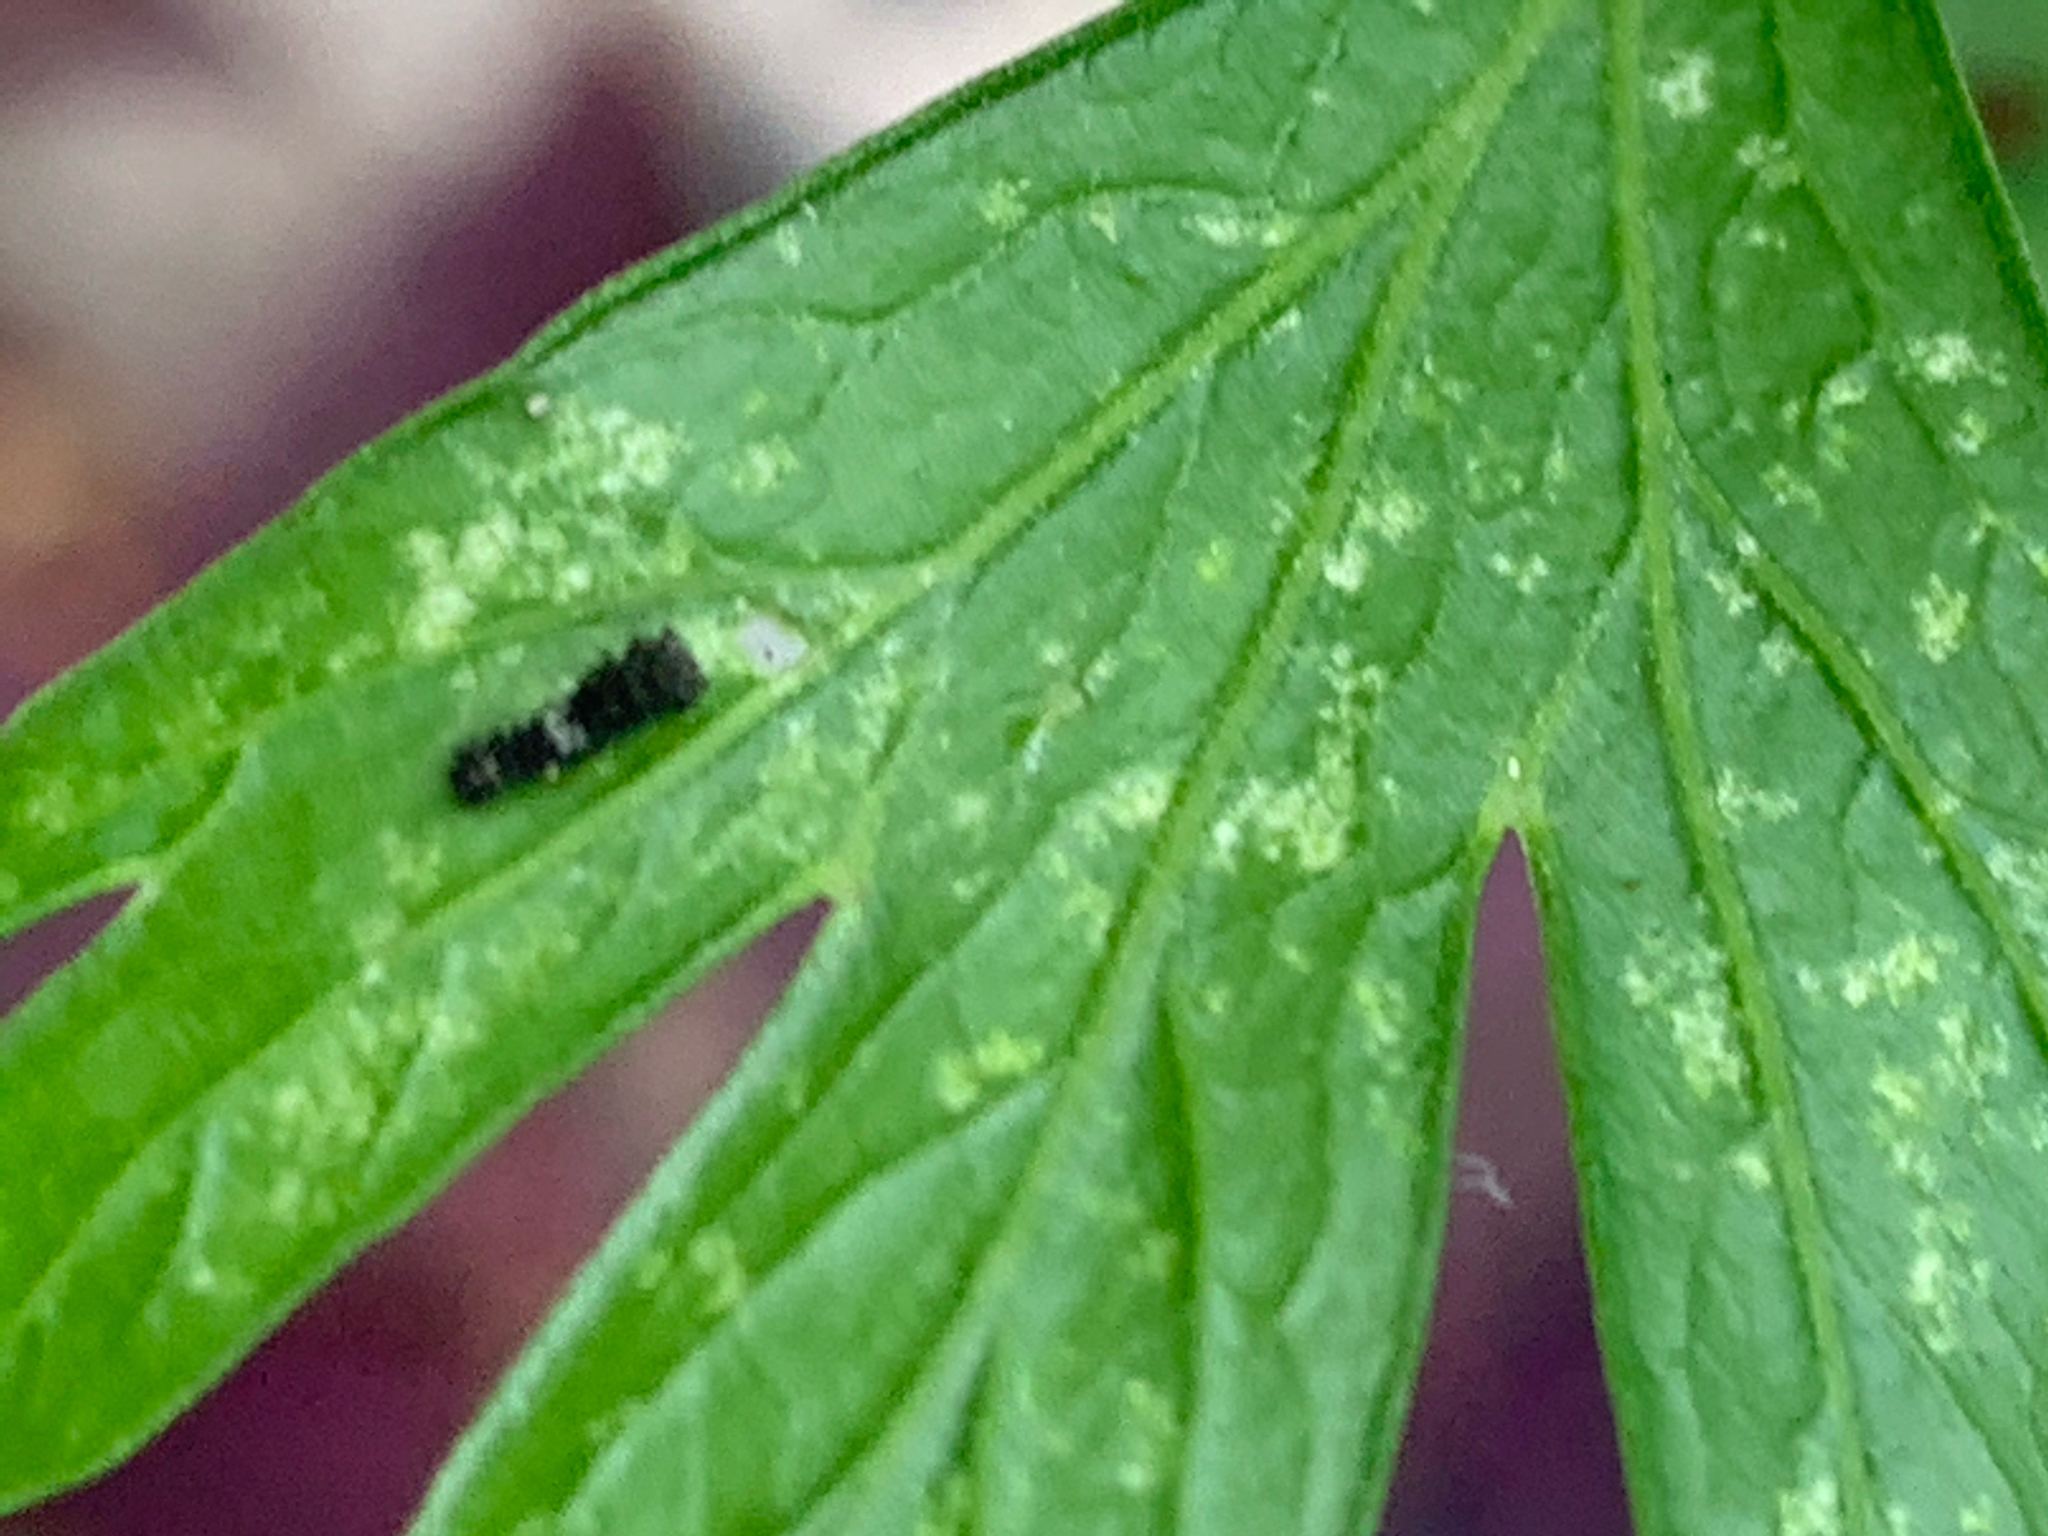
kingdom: Animalia
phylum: Arthropoda
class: Insecta
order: Lepidoptera
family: Papilionidae
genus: Papilio
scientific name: Papilio polyxenes
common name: Black swallowtail
